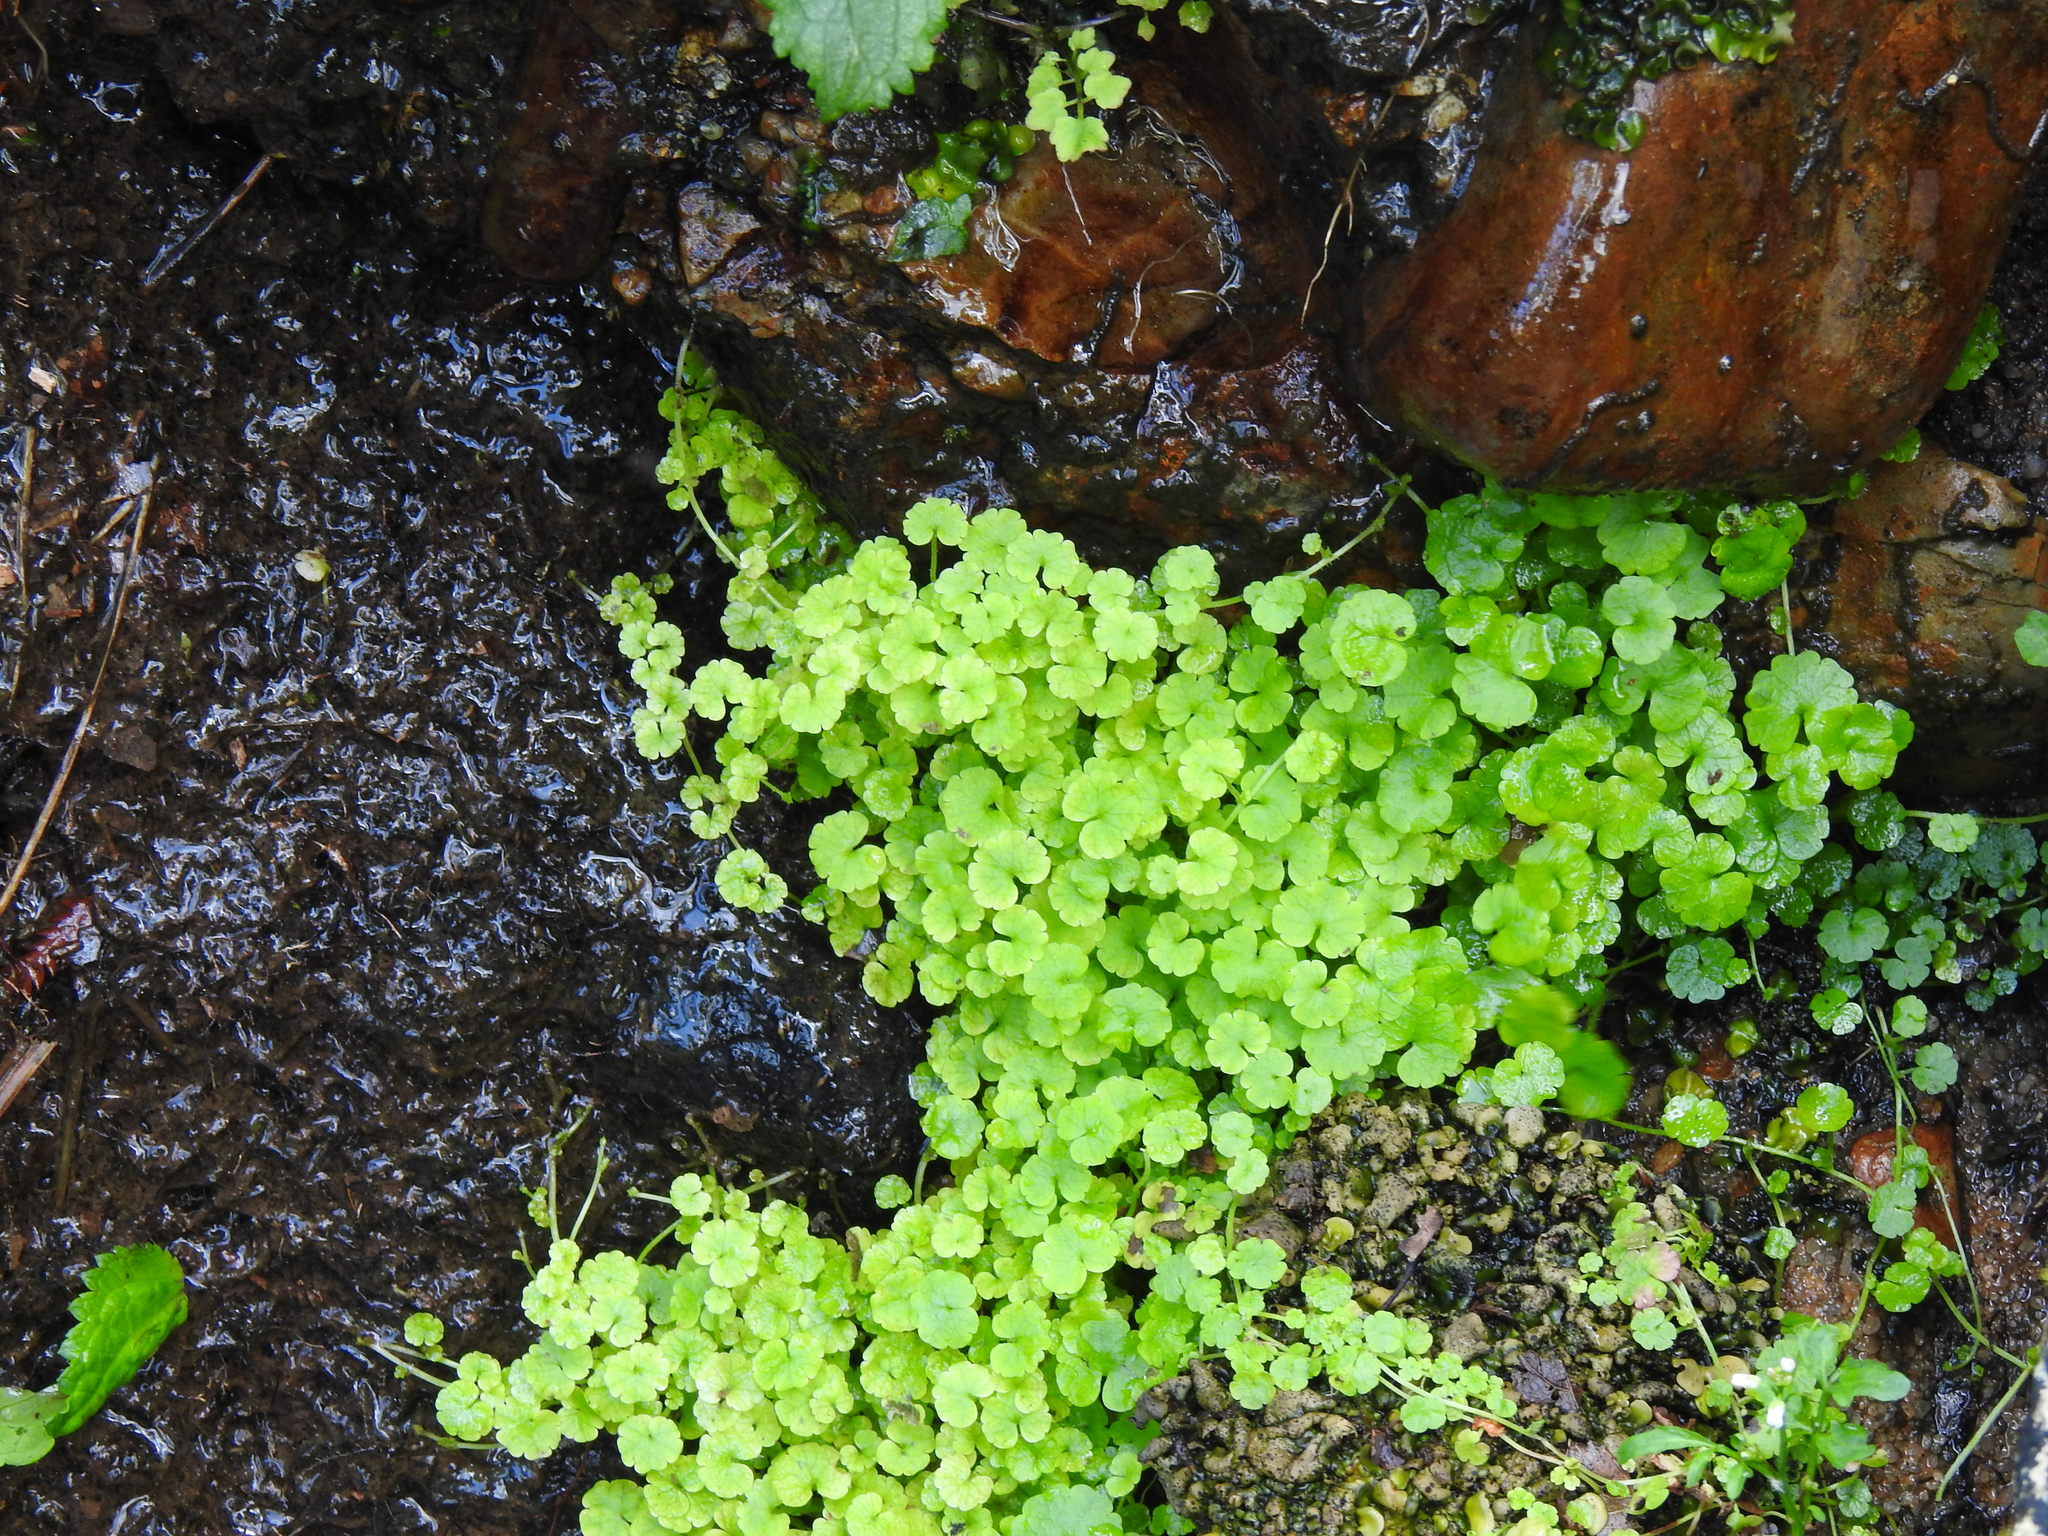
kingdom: Plantae
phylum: Tracheophyta
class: Magnoliopsida
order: Lamiales
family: Plantaginaceae
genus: Sibthorpia
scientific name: Sibthorpia europaea
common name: Cornish moneywort
